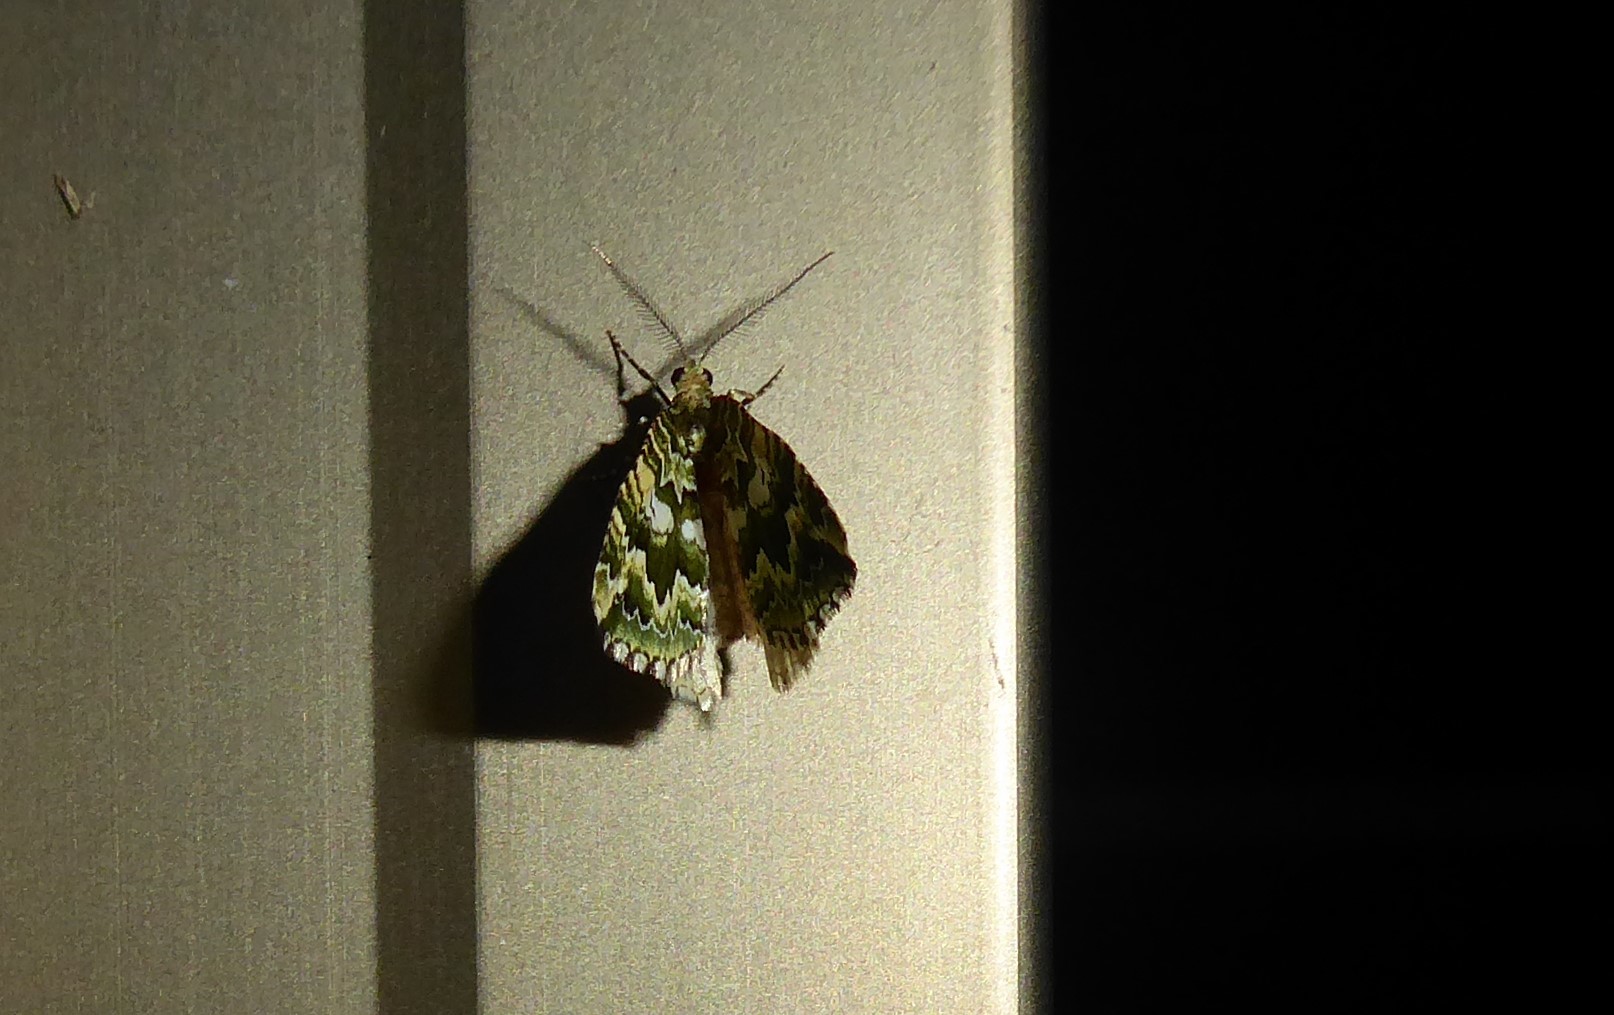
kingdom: Animalia
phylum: Arthropoda
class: Insecta
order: Lepidoptera
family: Geometridae
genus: Asaphodes
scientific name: Asaphodes beata
